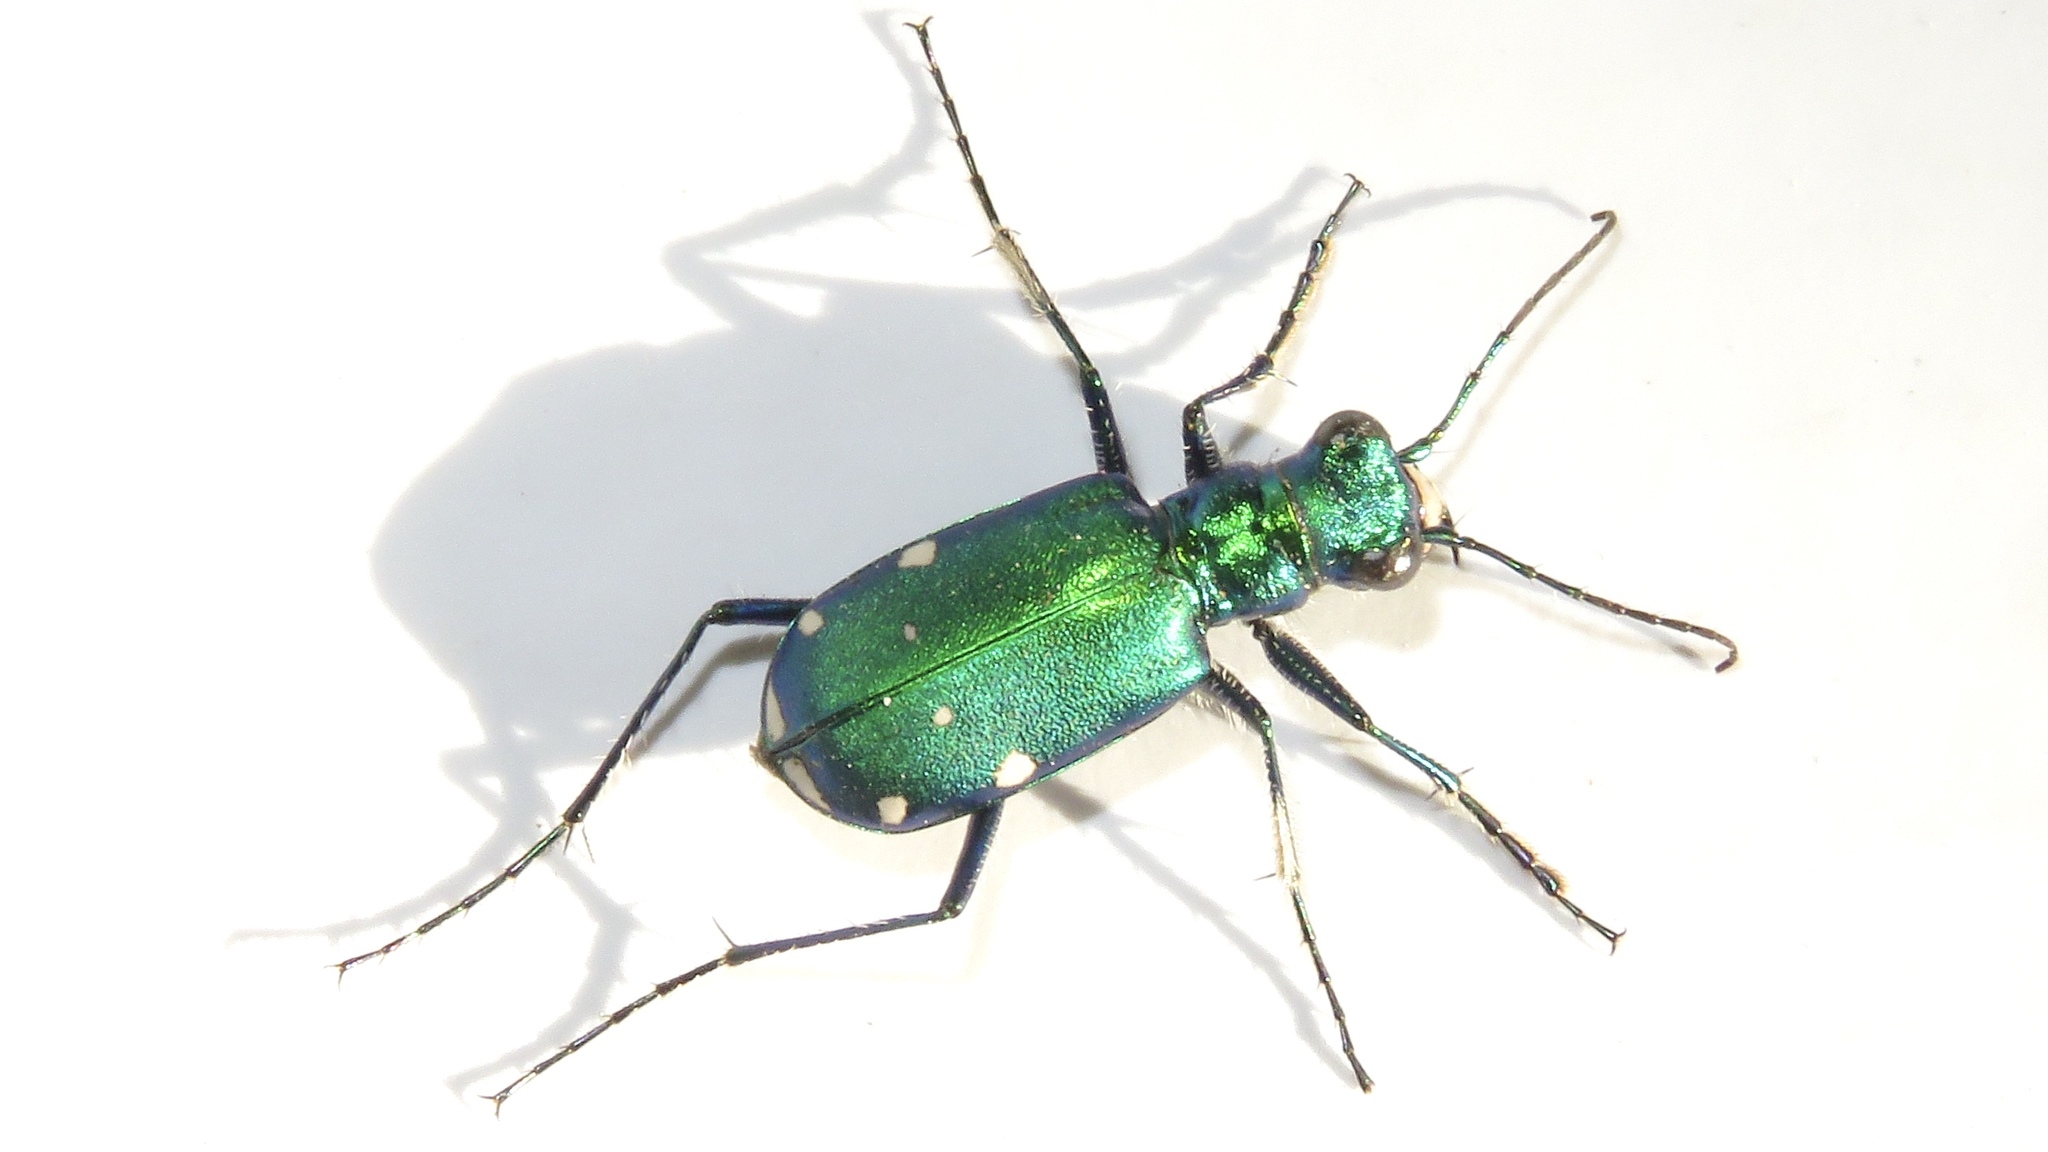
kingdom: Animalia
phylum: Arthropoda
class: Insecta
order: Coleoptera
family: Carabidae
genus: Cicindela
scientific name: Cicindela sexguttata
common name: Six-spotted tiger beetle
